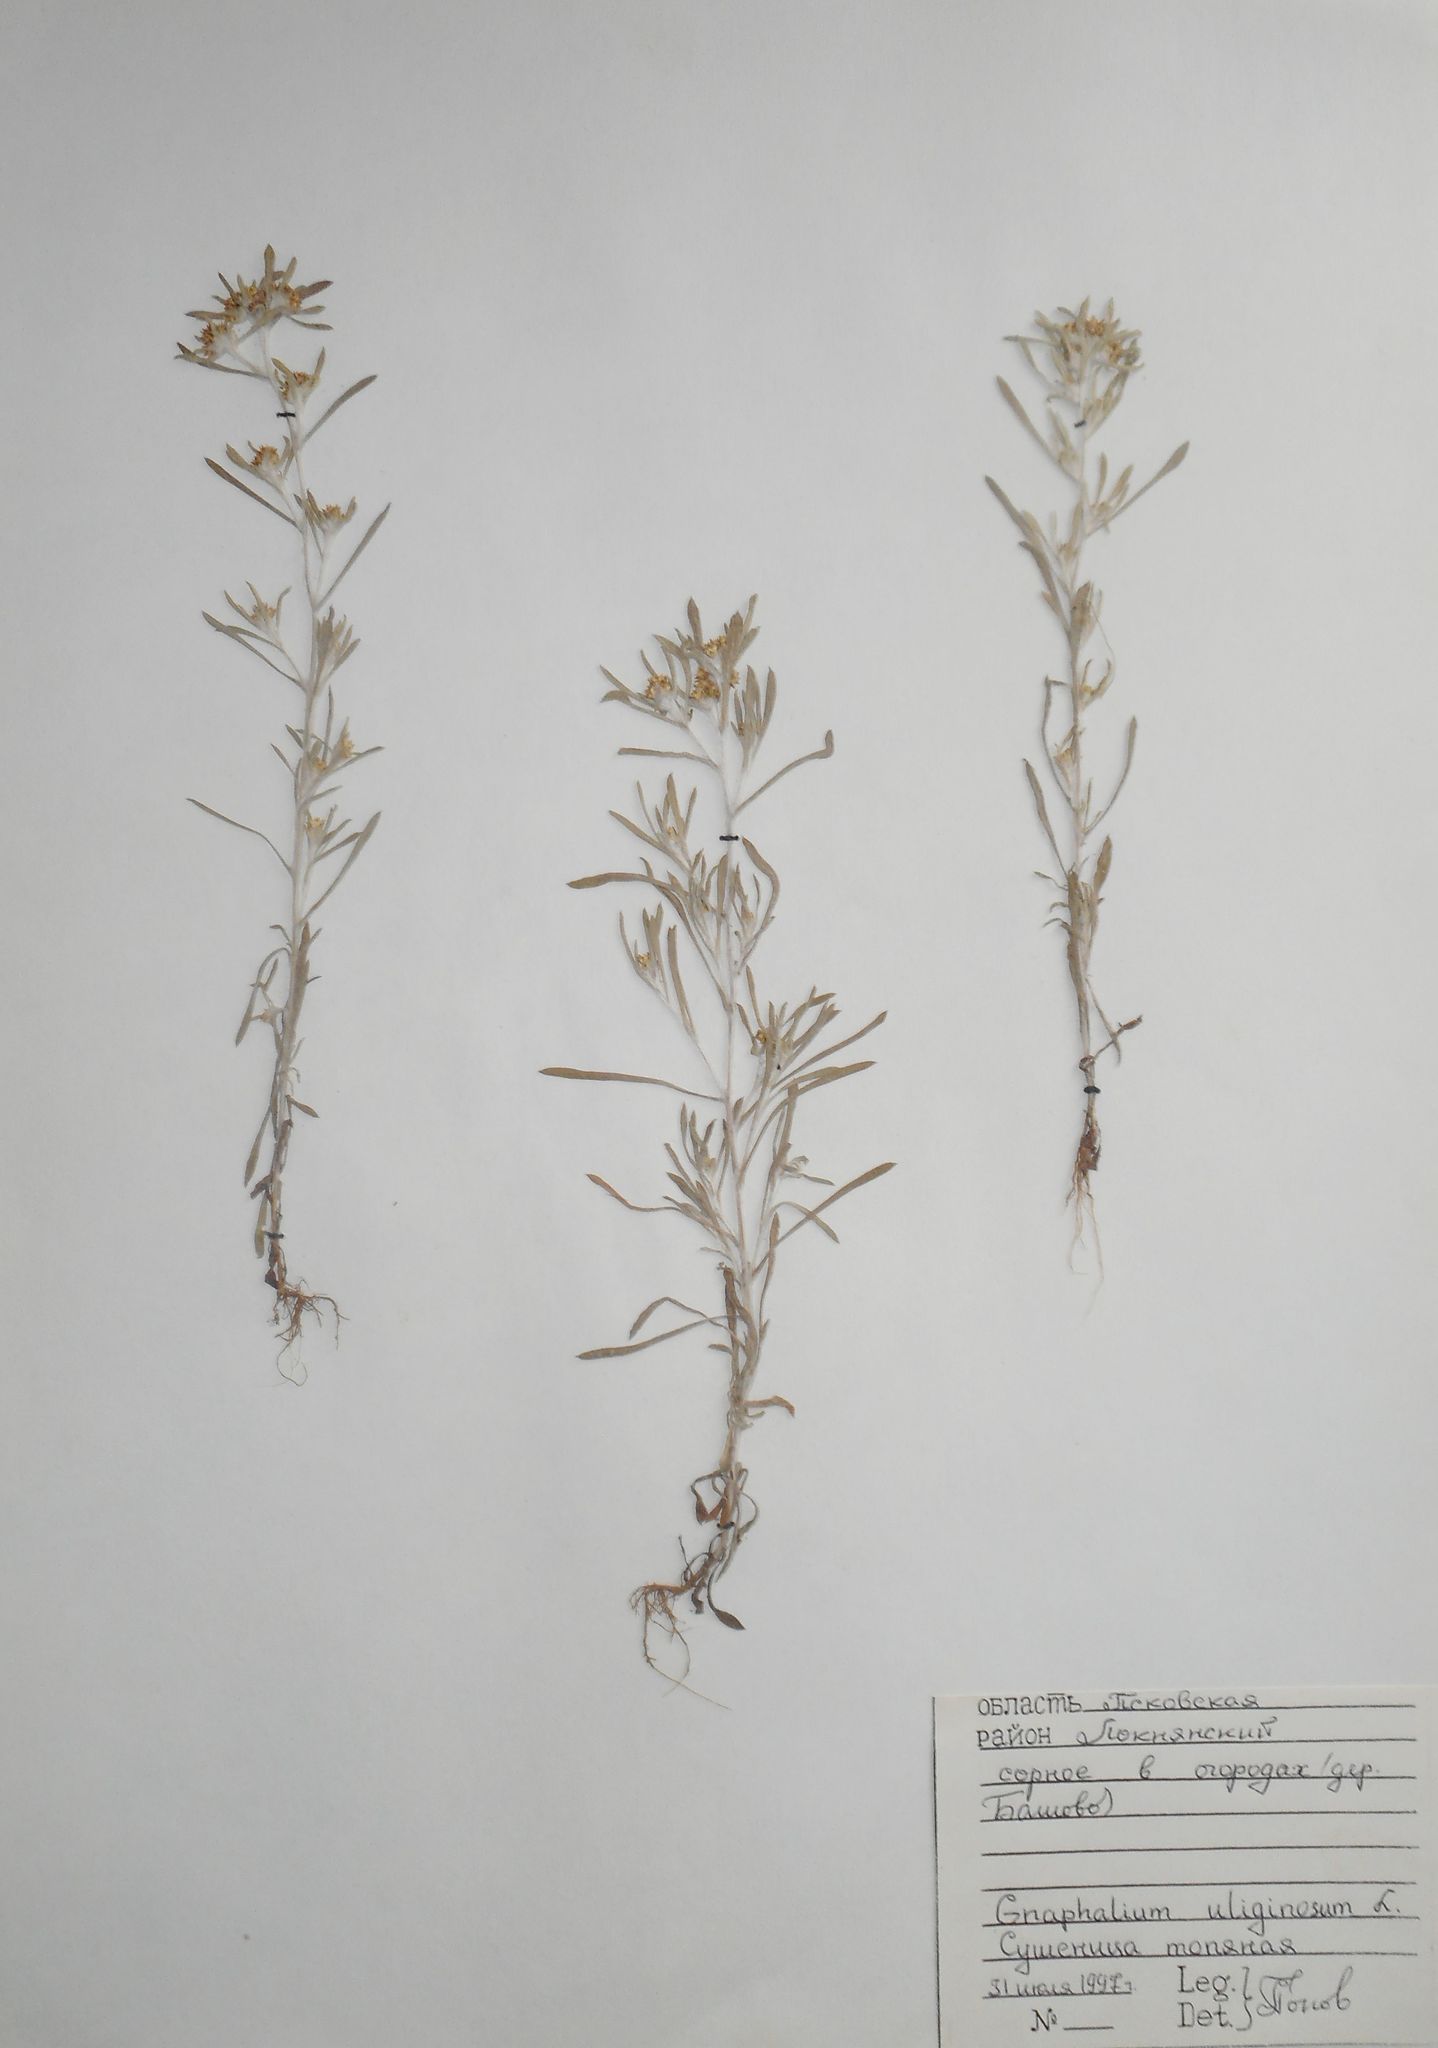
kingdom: Plantae
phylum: Tracheophyta
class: Magnoliopsida
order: Asterales
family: Asteraceae
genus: Gnaphalium
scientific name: Gnaphalium uliginosum
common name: Marsh cudweed
